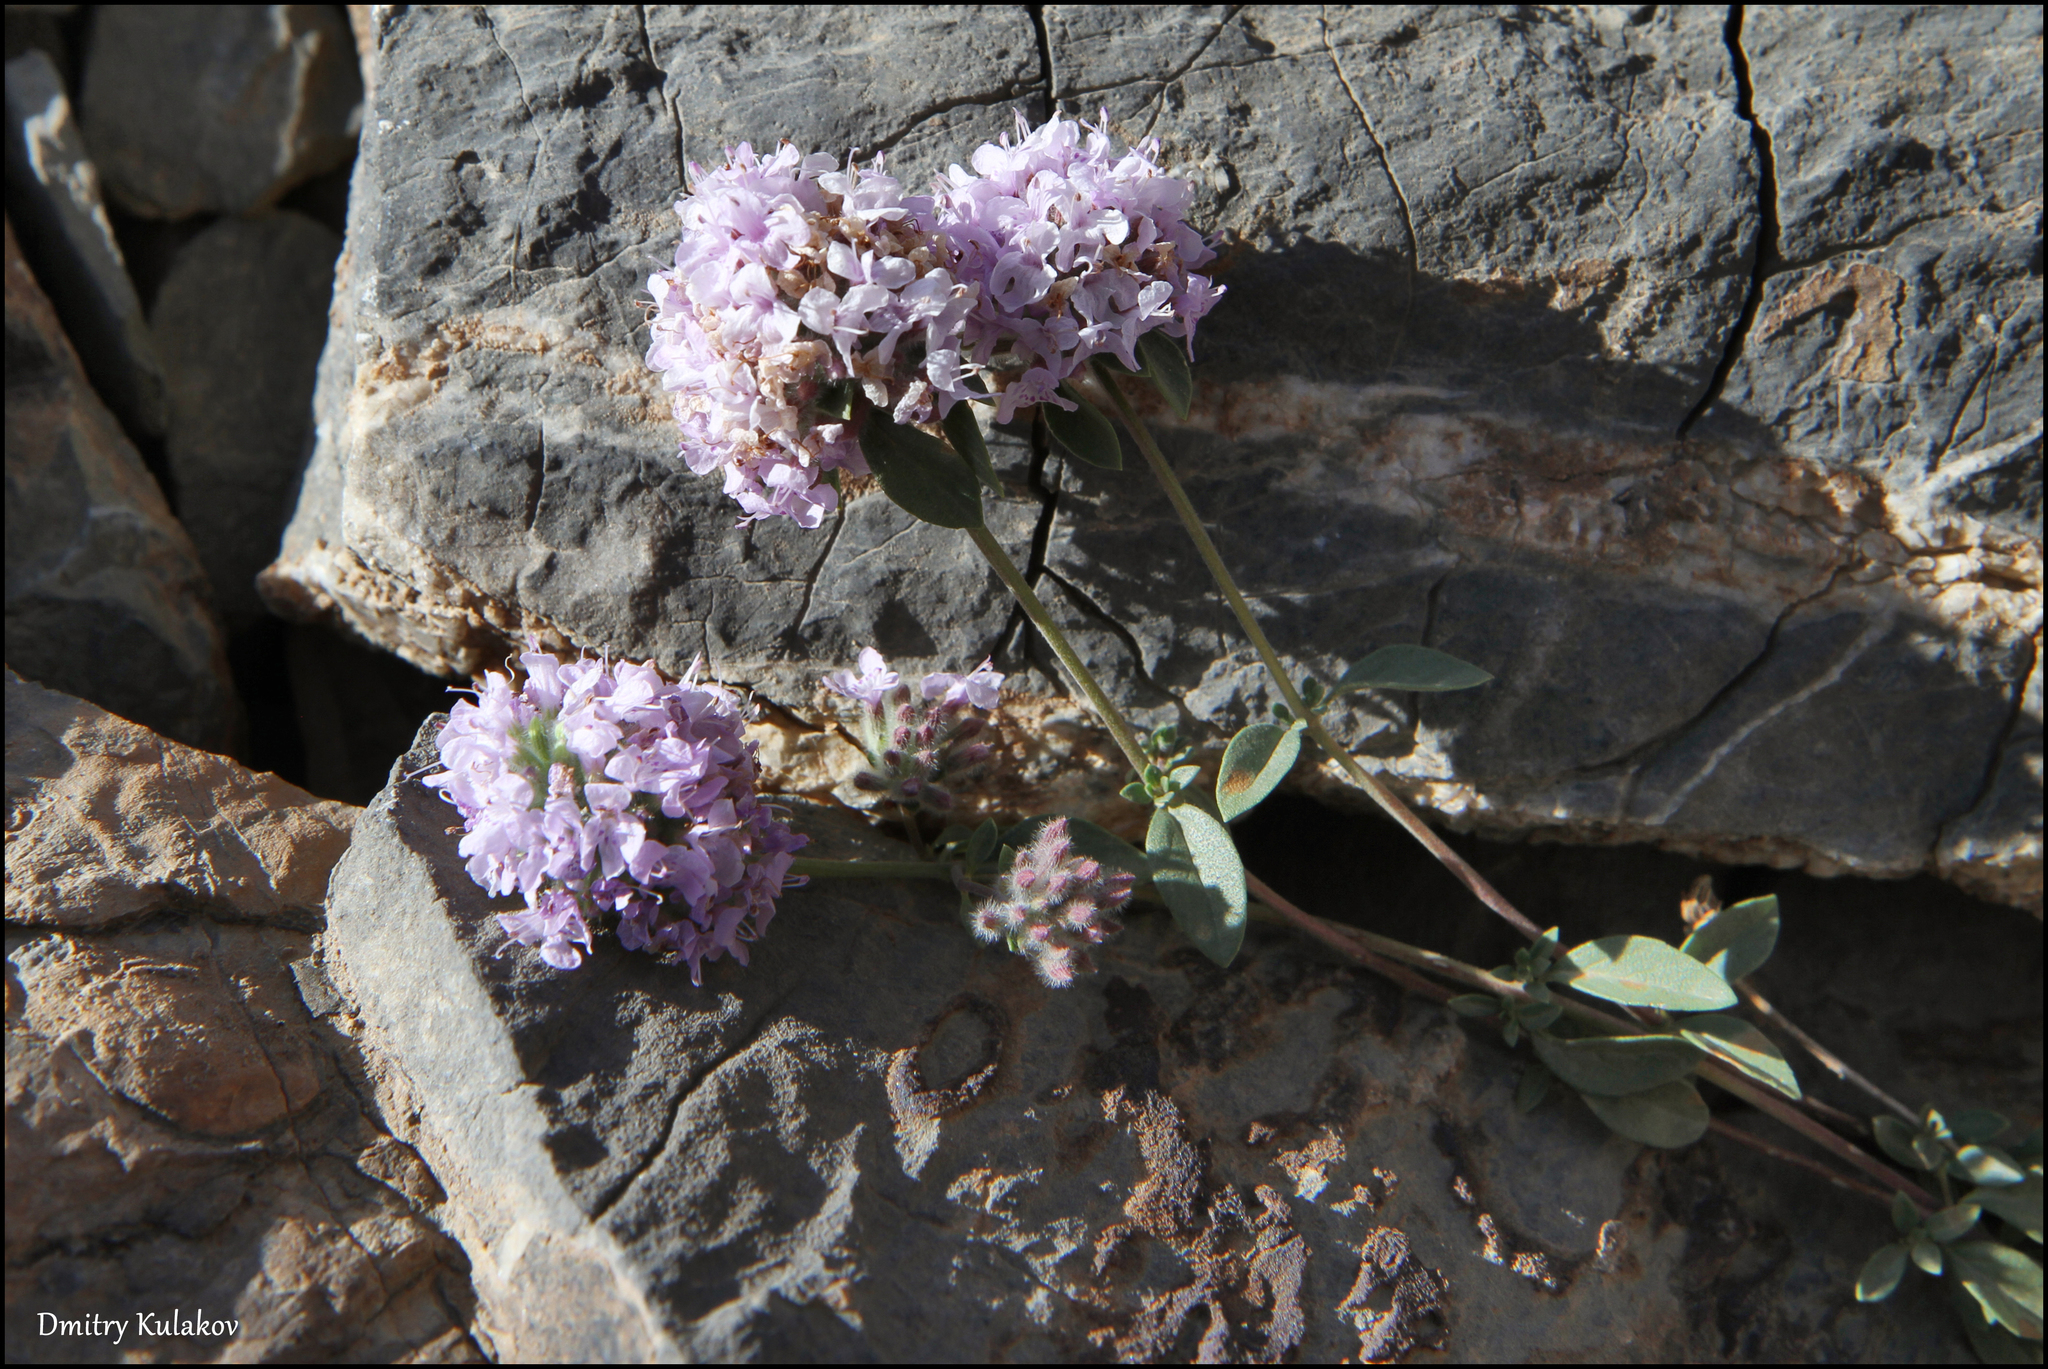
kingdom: Plantae
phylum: Tracheophyta
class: Magnoliopsida
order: Lamiales
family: Lamiaceae
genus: Ziziphora
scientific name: Ziziphora pamiroalaica
